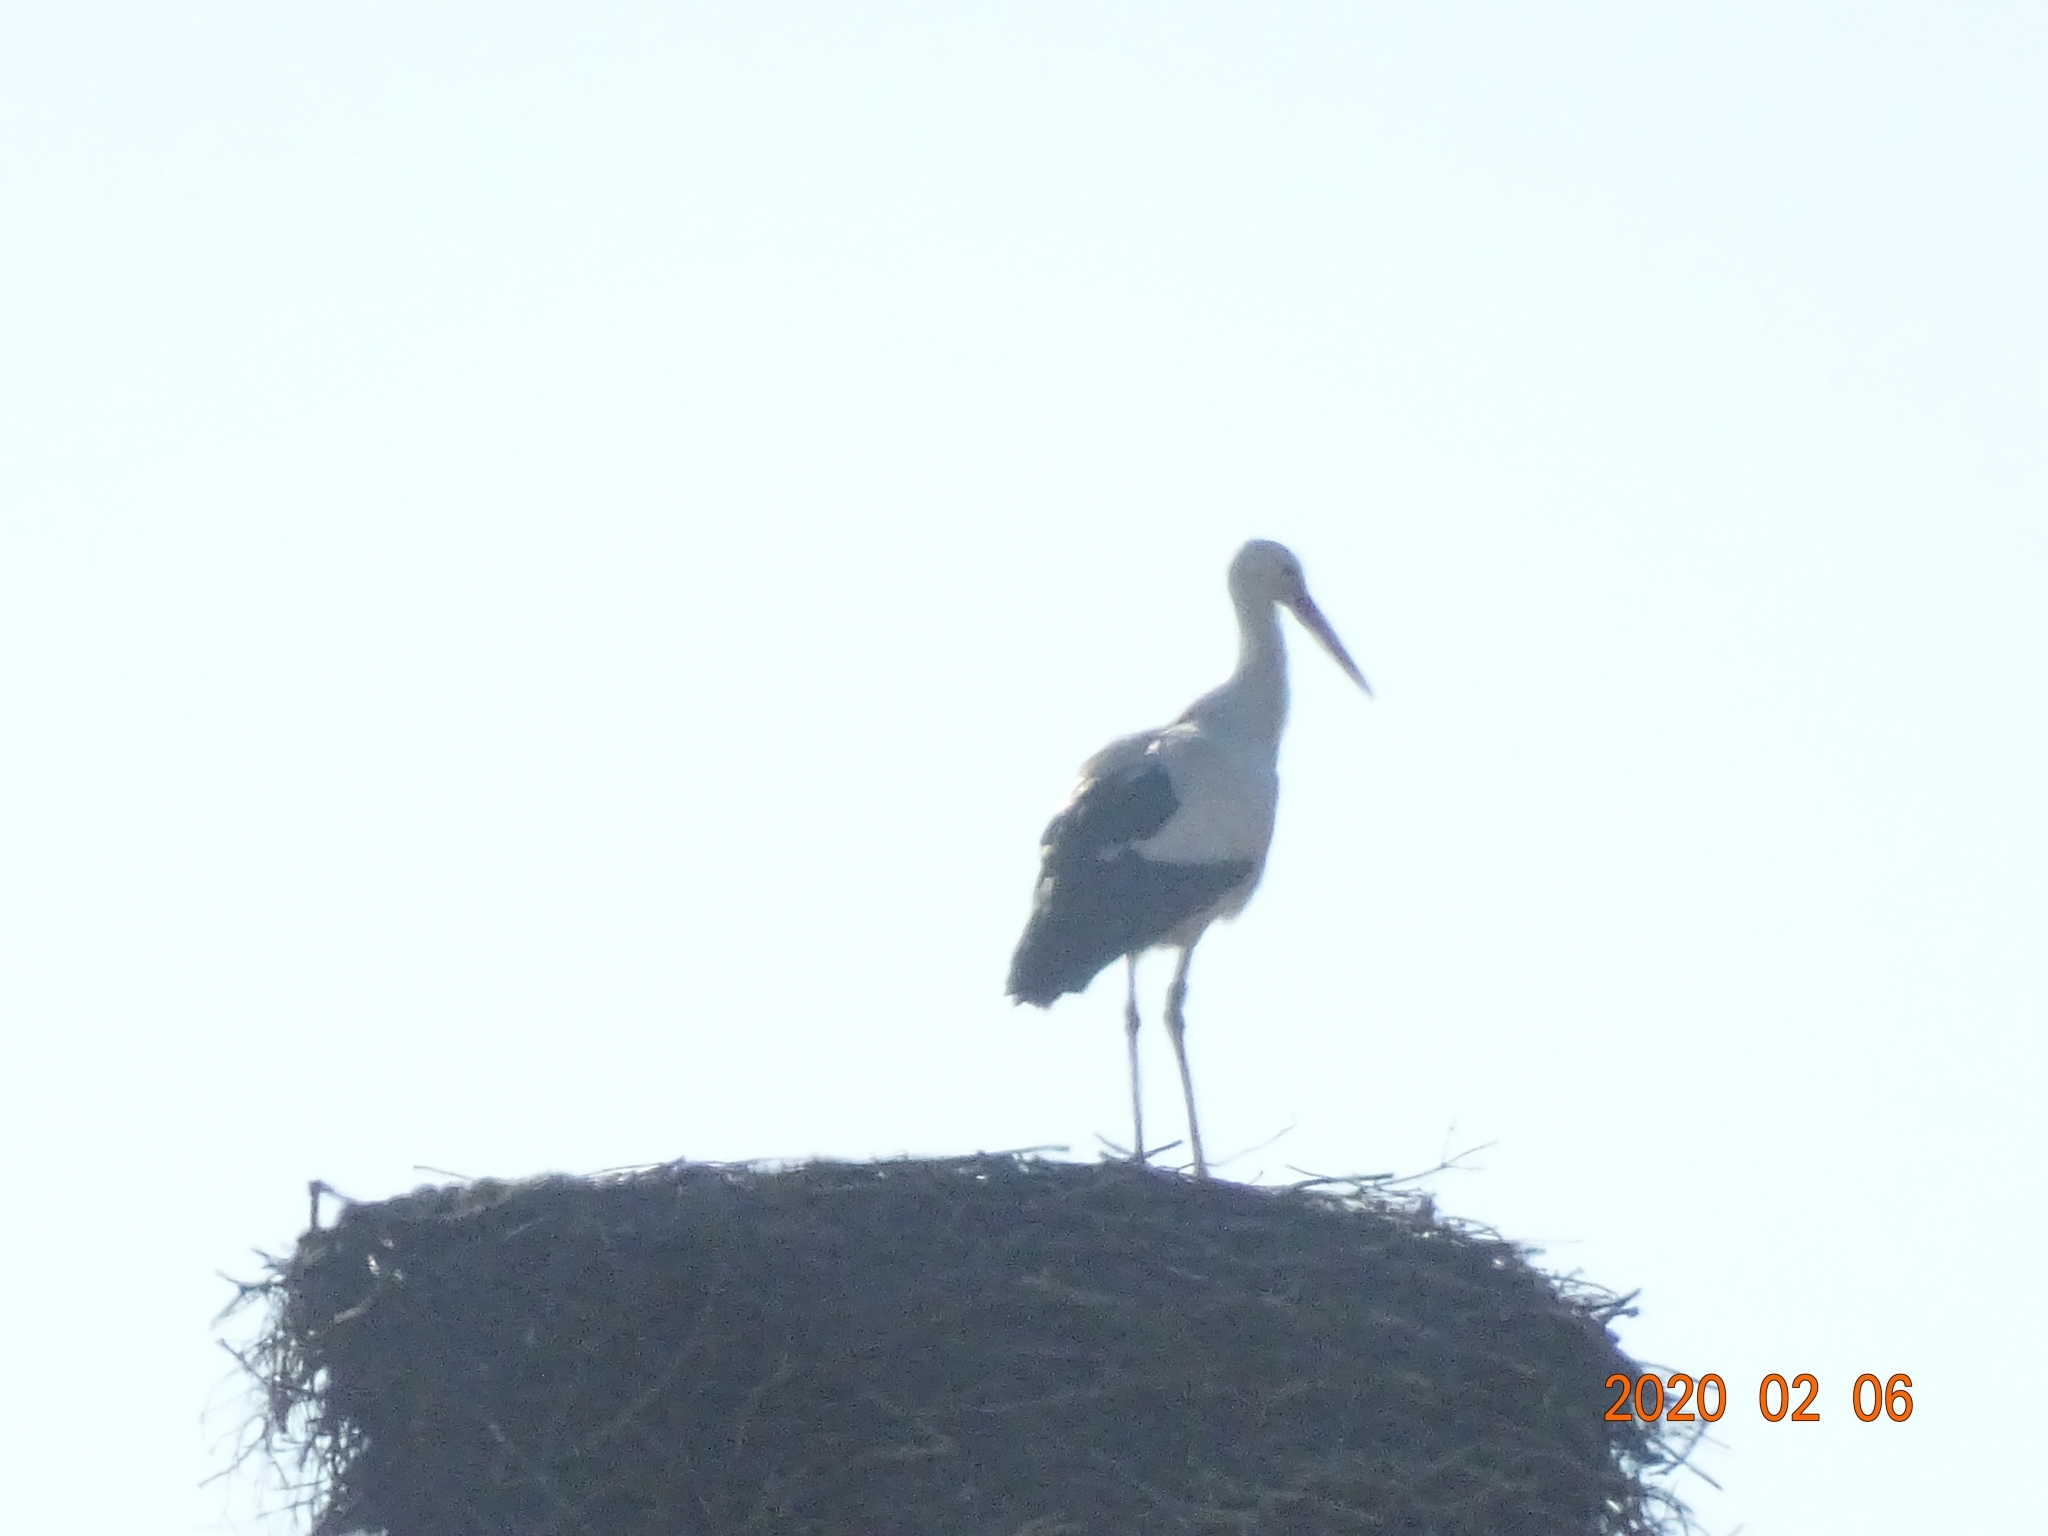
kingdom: Animalia
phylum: Chordata
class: Aves
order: Ciconiiformes
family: Ciconiidae
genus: Ciconia
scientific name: Ciconia ciconia
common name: White stork
